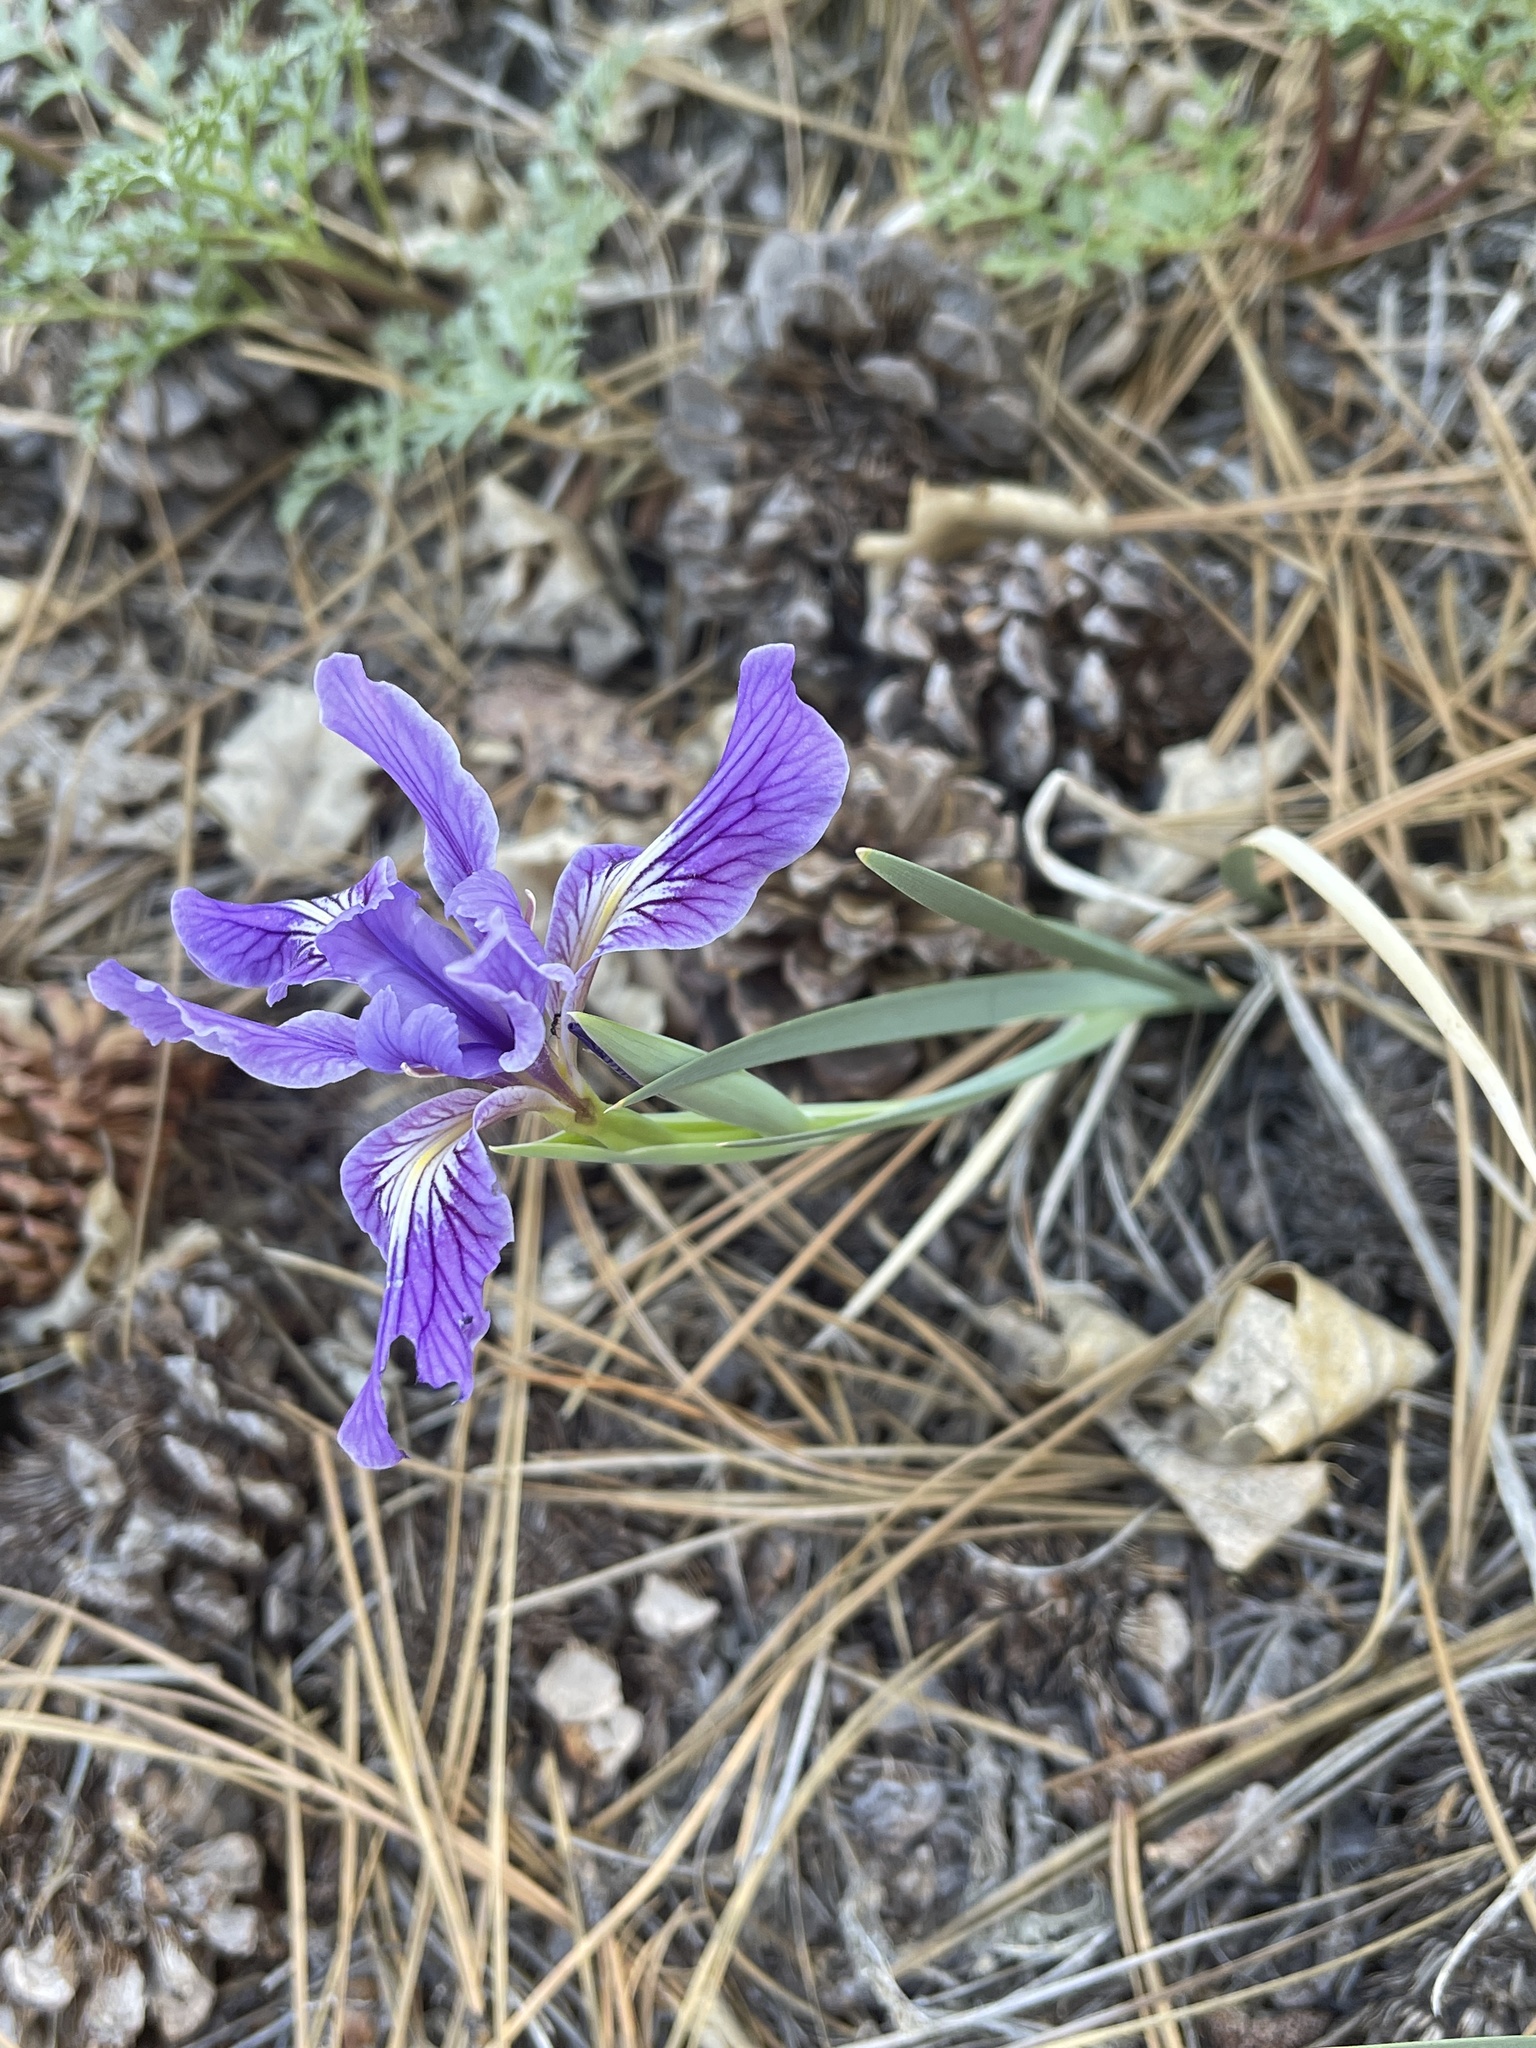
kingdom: Plantae
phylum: Tracheophyta
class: Liliopsida
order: Asparagales
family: Iridaceae
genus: Iris
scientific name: Iris hartwegii
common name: Sierra iris
